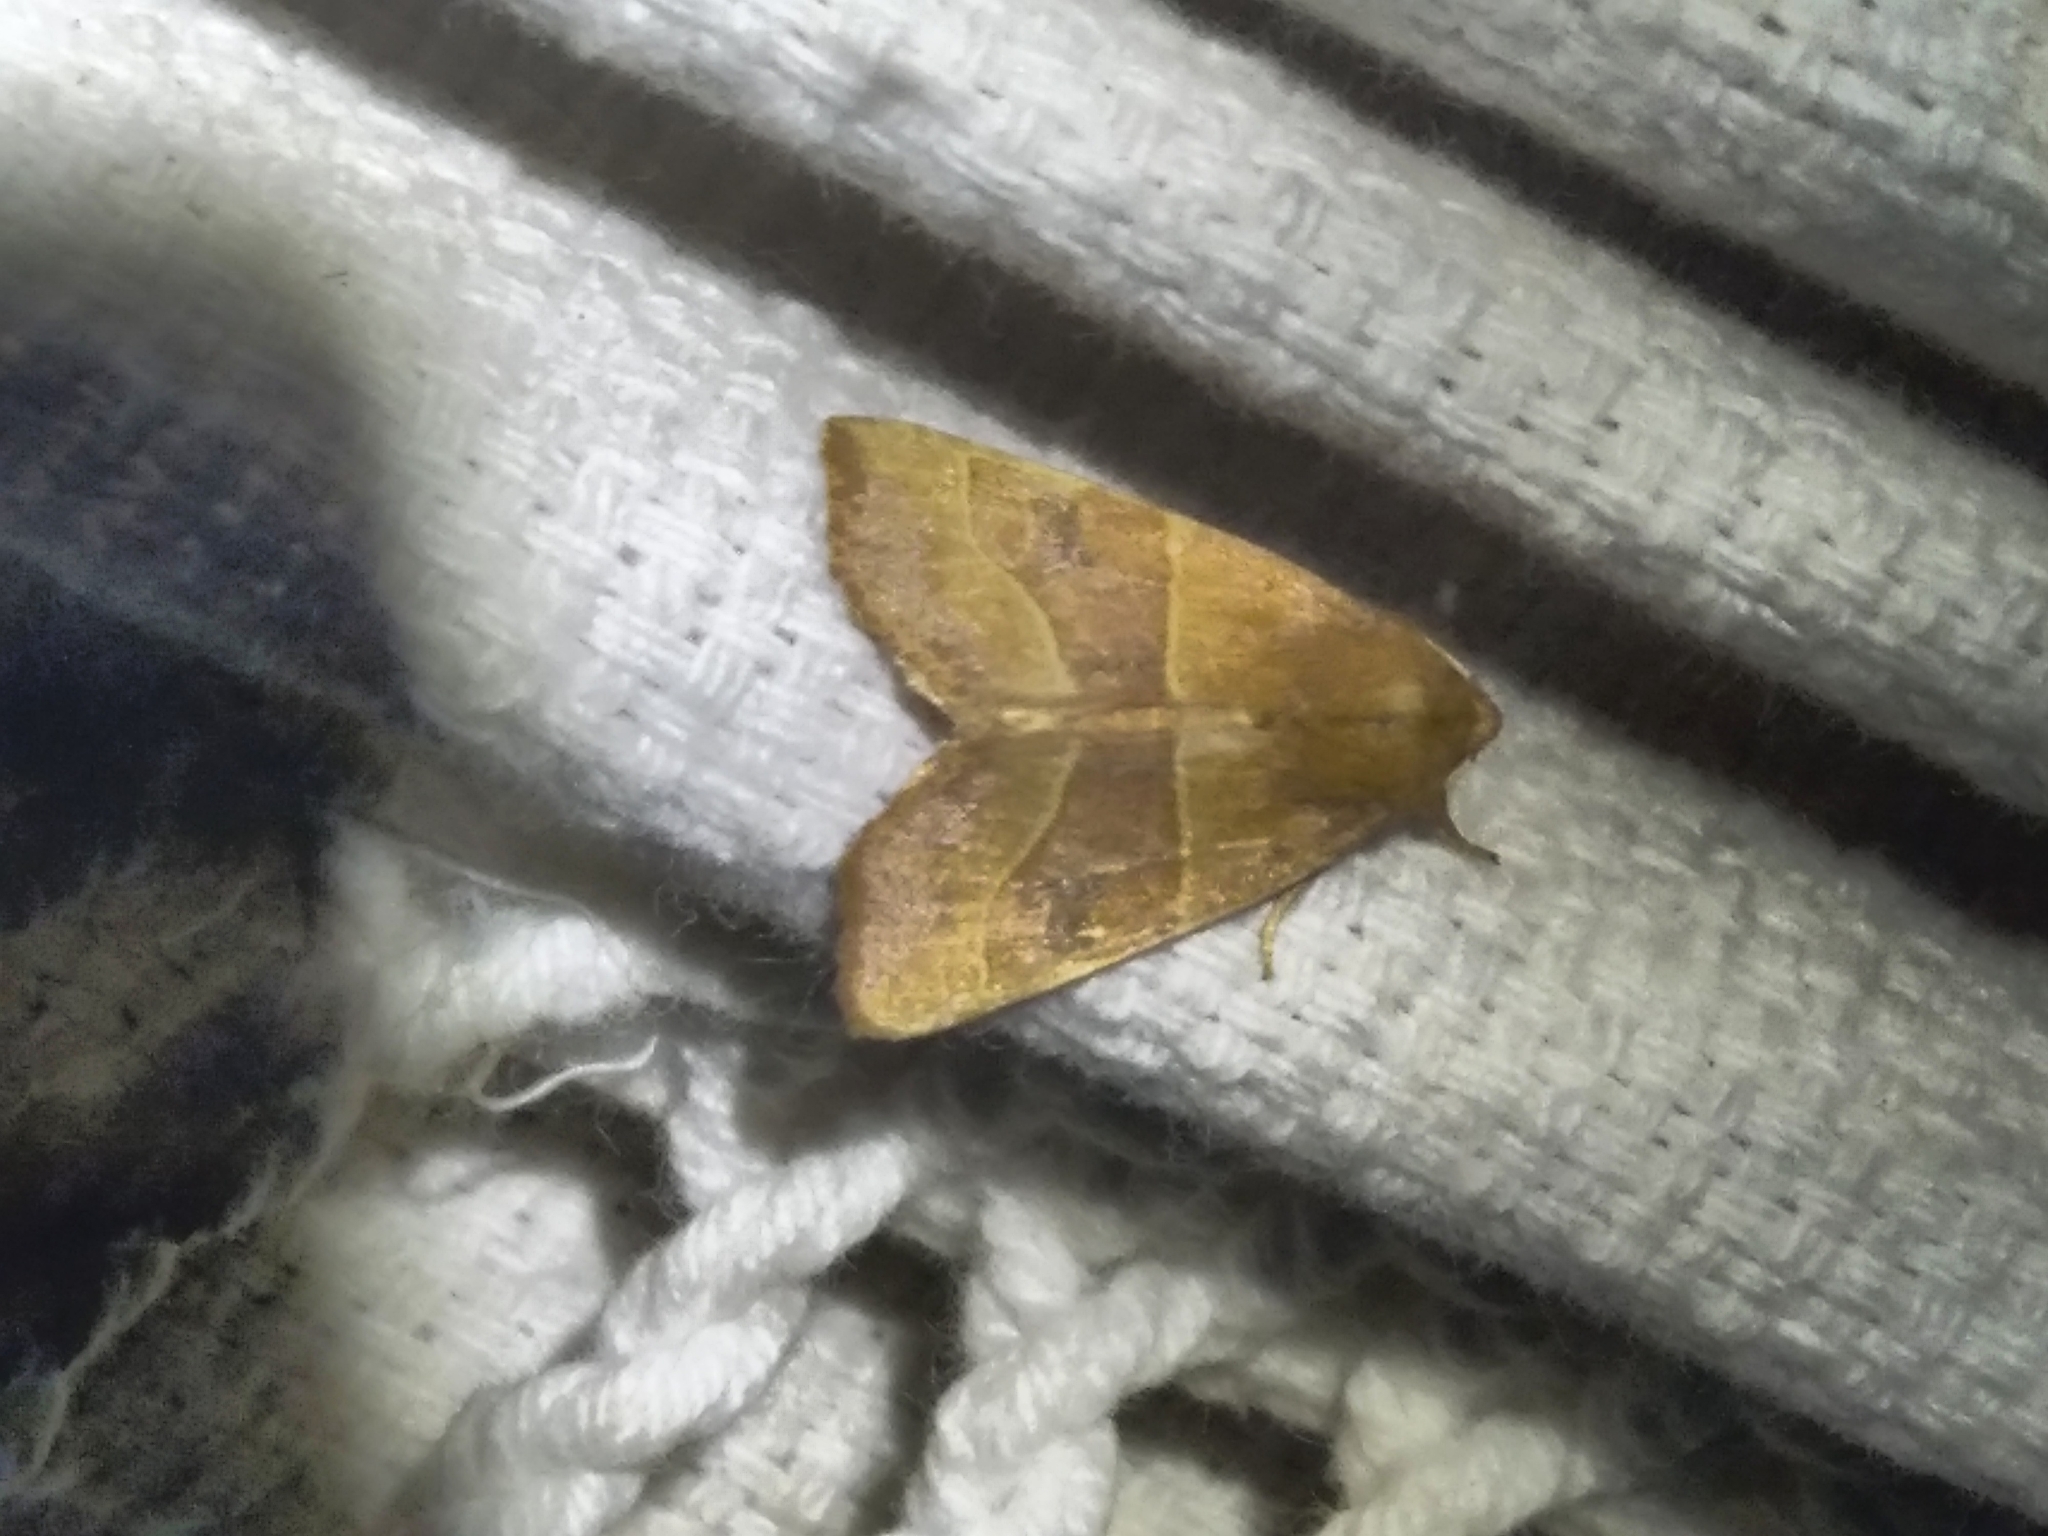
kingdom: Animalia
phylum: Arthropoda
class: Insecta
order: Lepidoptera
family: Noctuidae
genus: Atethmia
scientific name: Atethmia centrago
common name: Centre-barred sallow
